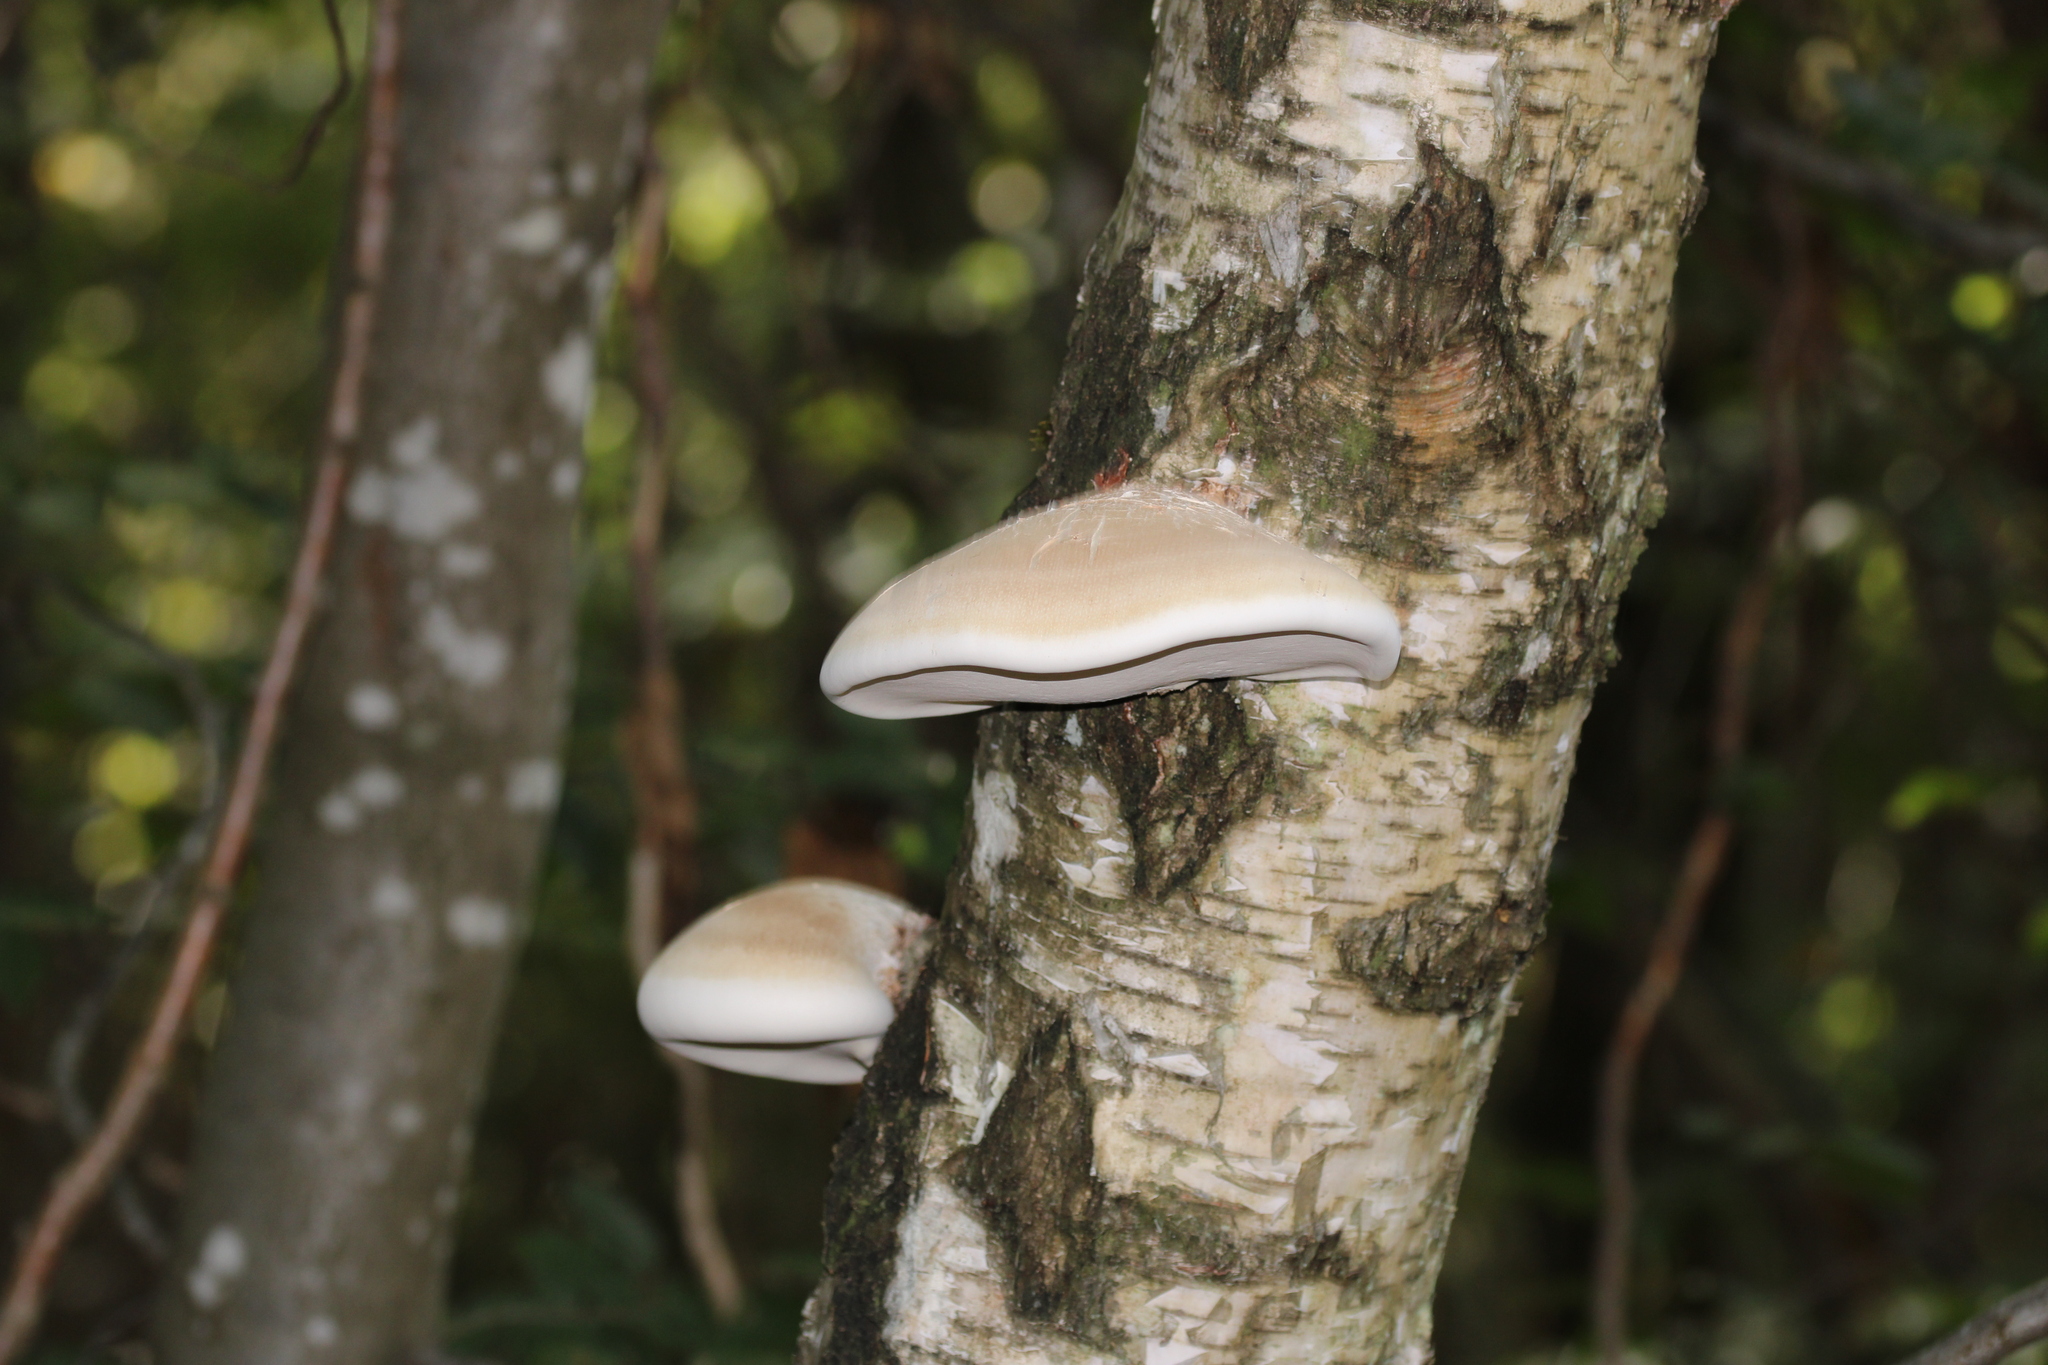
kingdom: Fungi
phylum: Basidiomycota
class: Agaricomycetes
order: Polyporales
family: Fomitopsidaceae
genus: Fomitopsis
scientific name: Fomitopsis betulina
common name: Birch polypore
